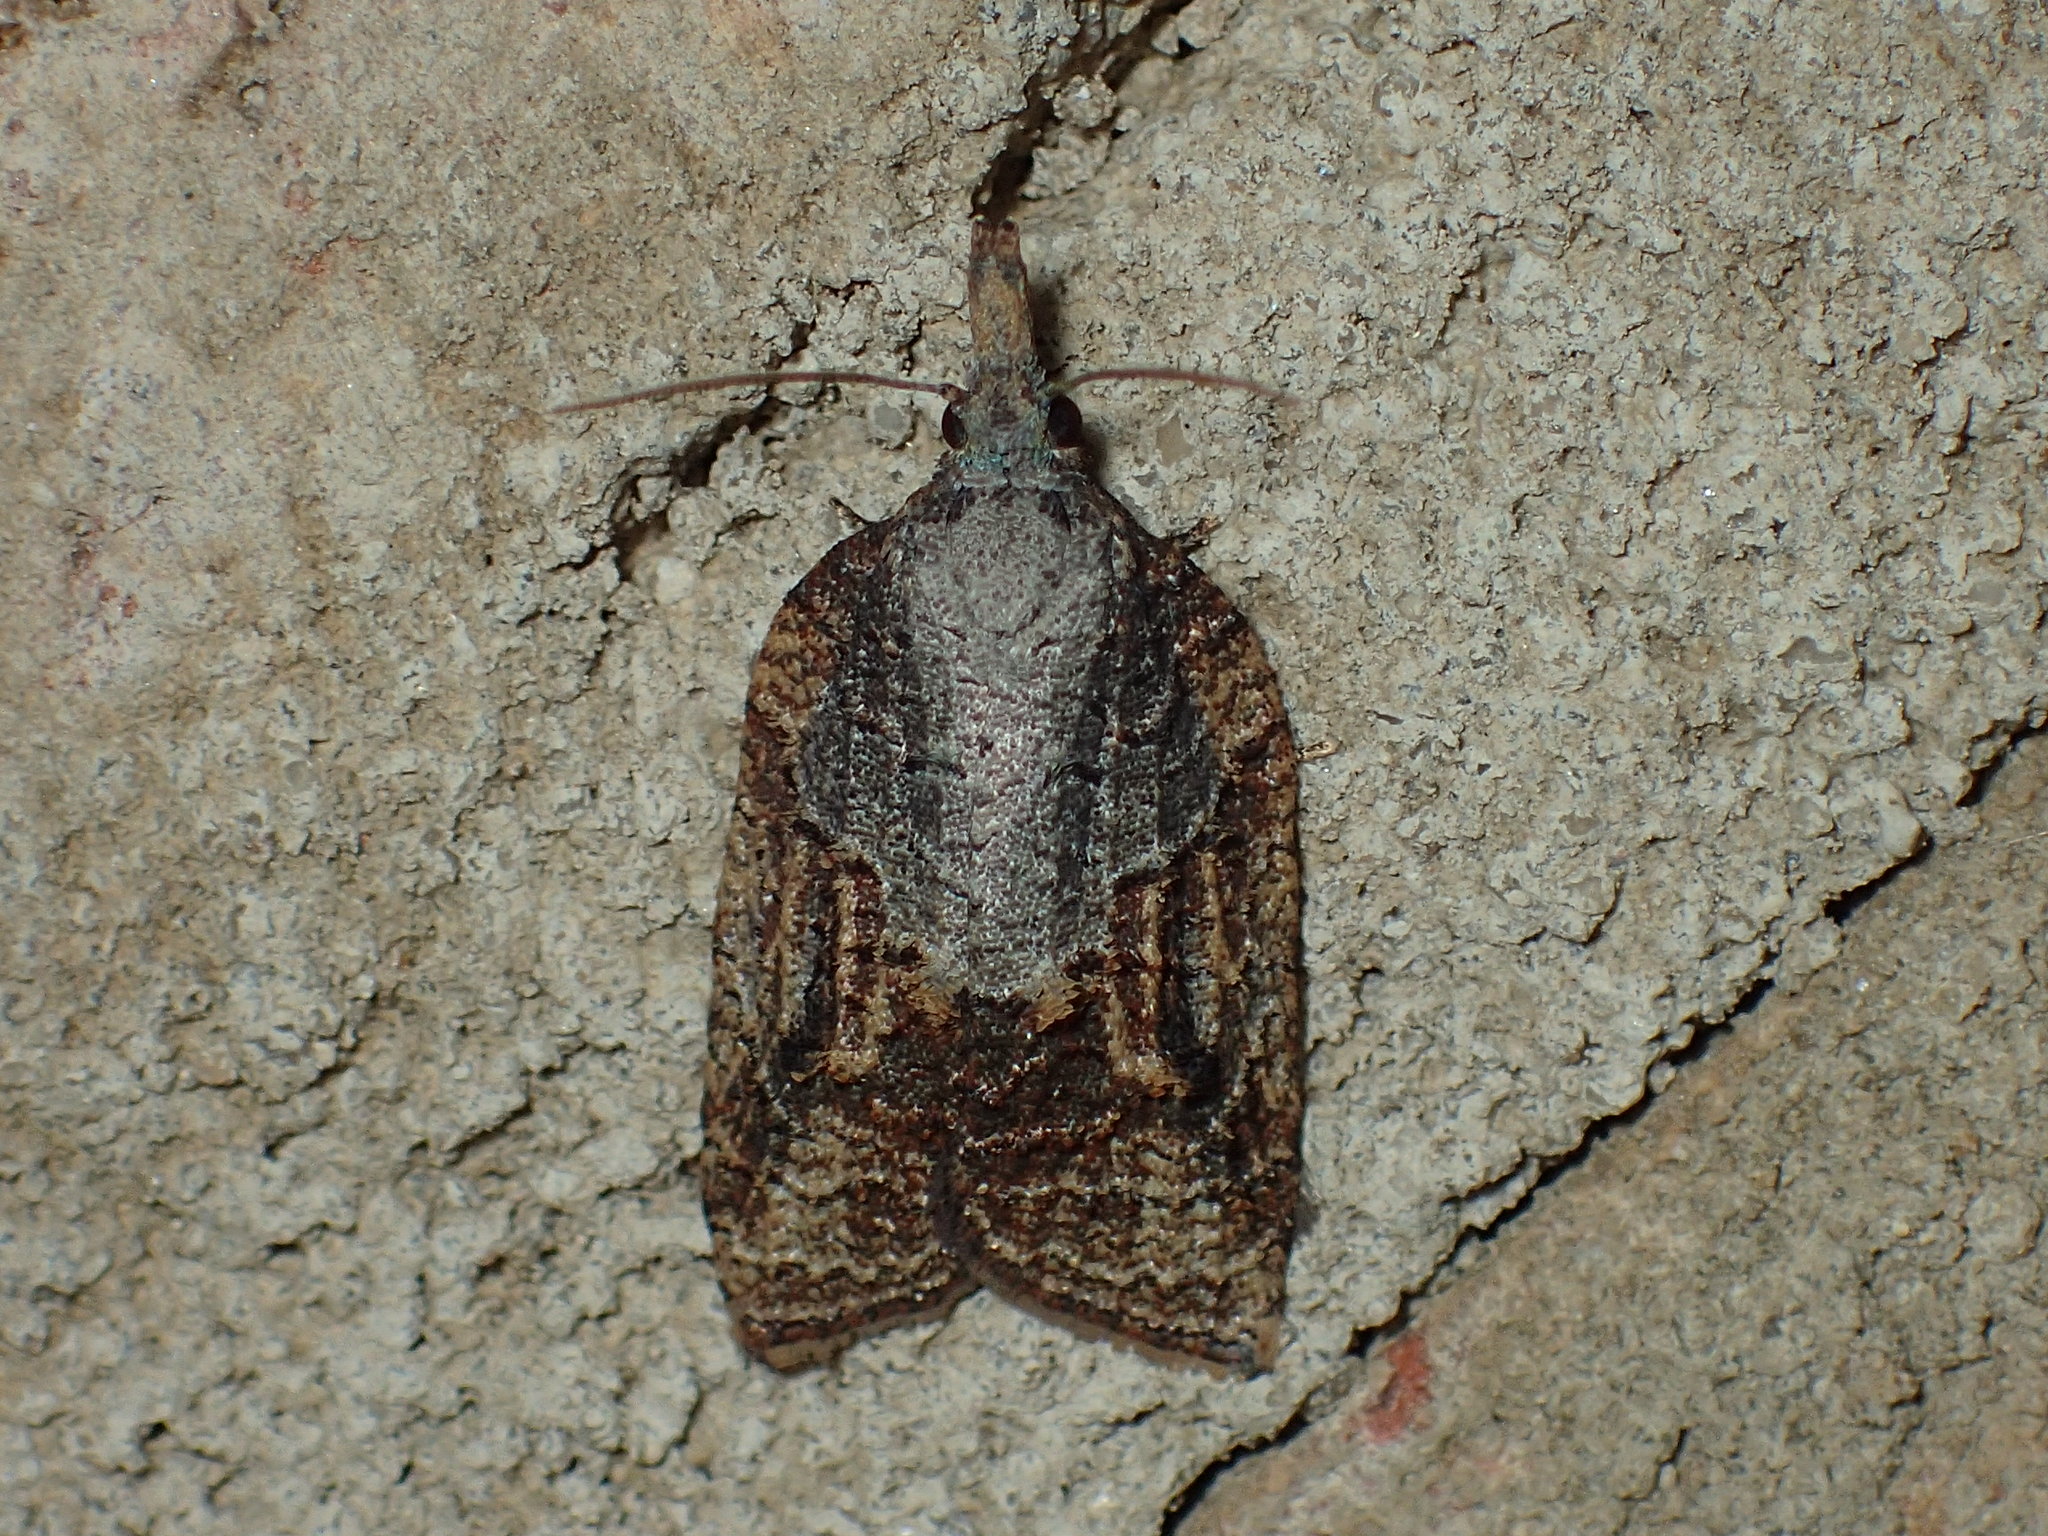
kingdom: Animalia
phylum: Arthropoda
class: Insecta
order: Lepidoptera
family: Tortricidae
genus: Platynota
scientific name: Platynota idaeusalis
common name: Tufted apple bud moth
